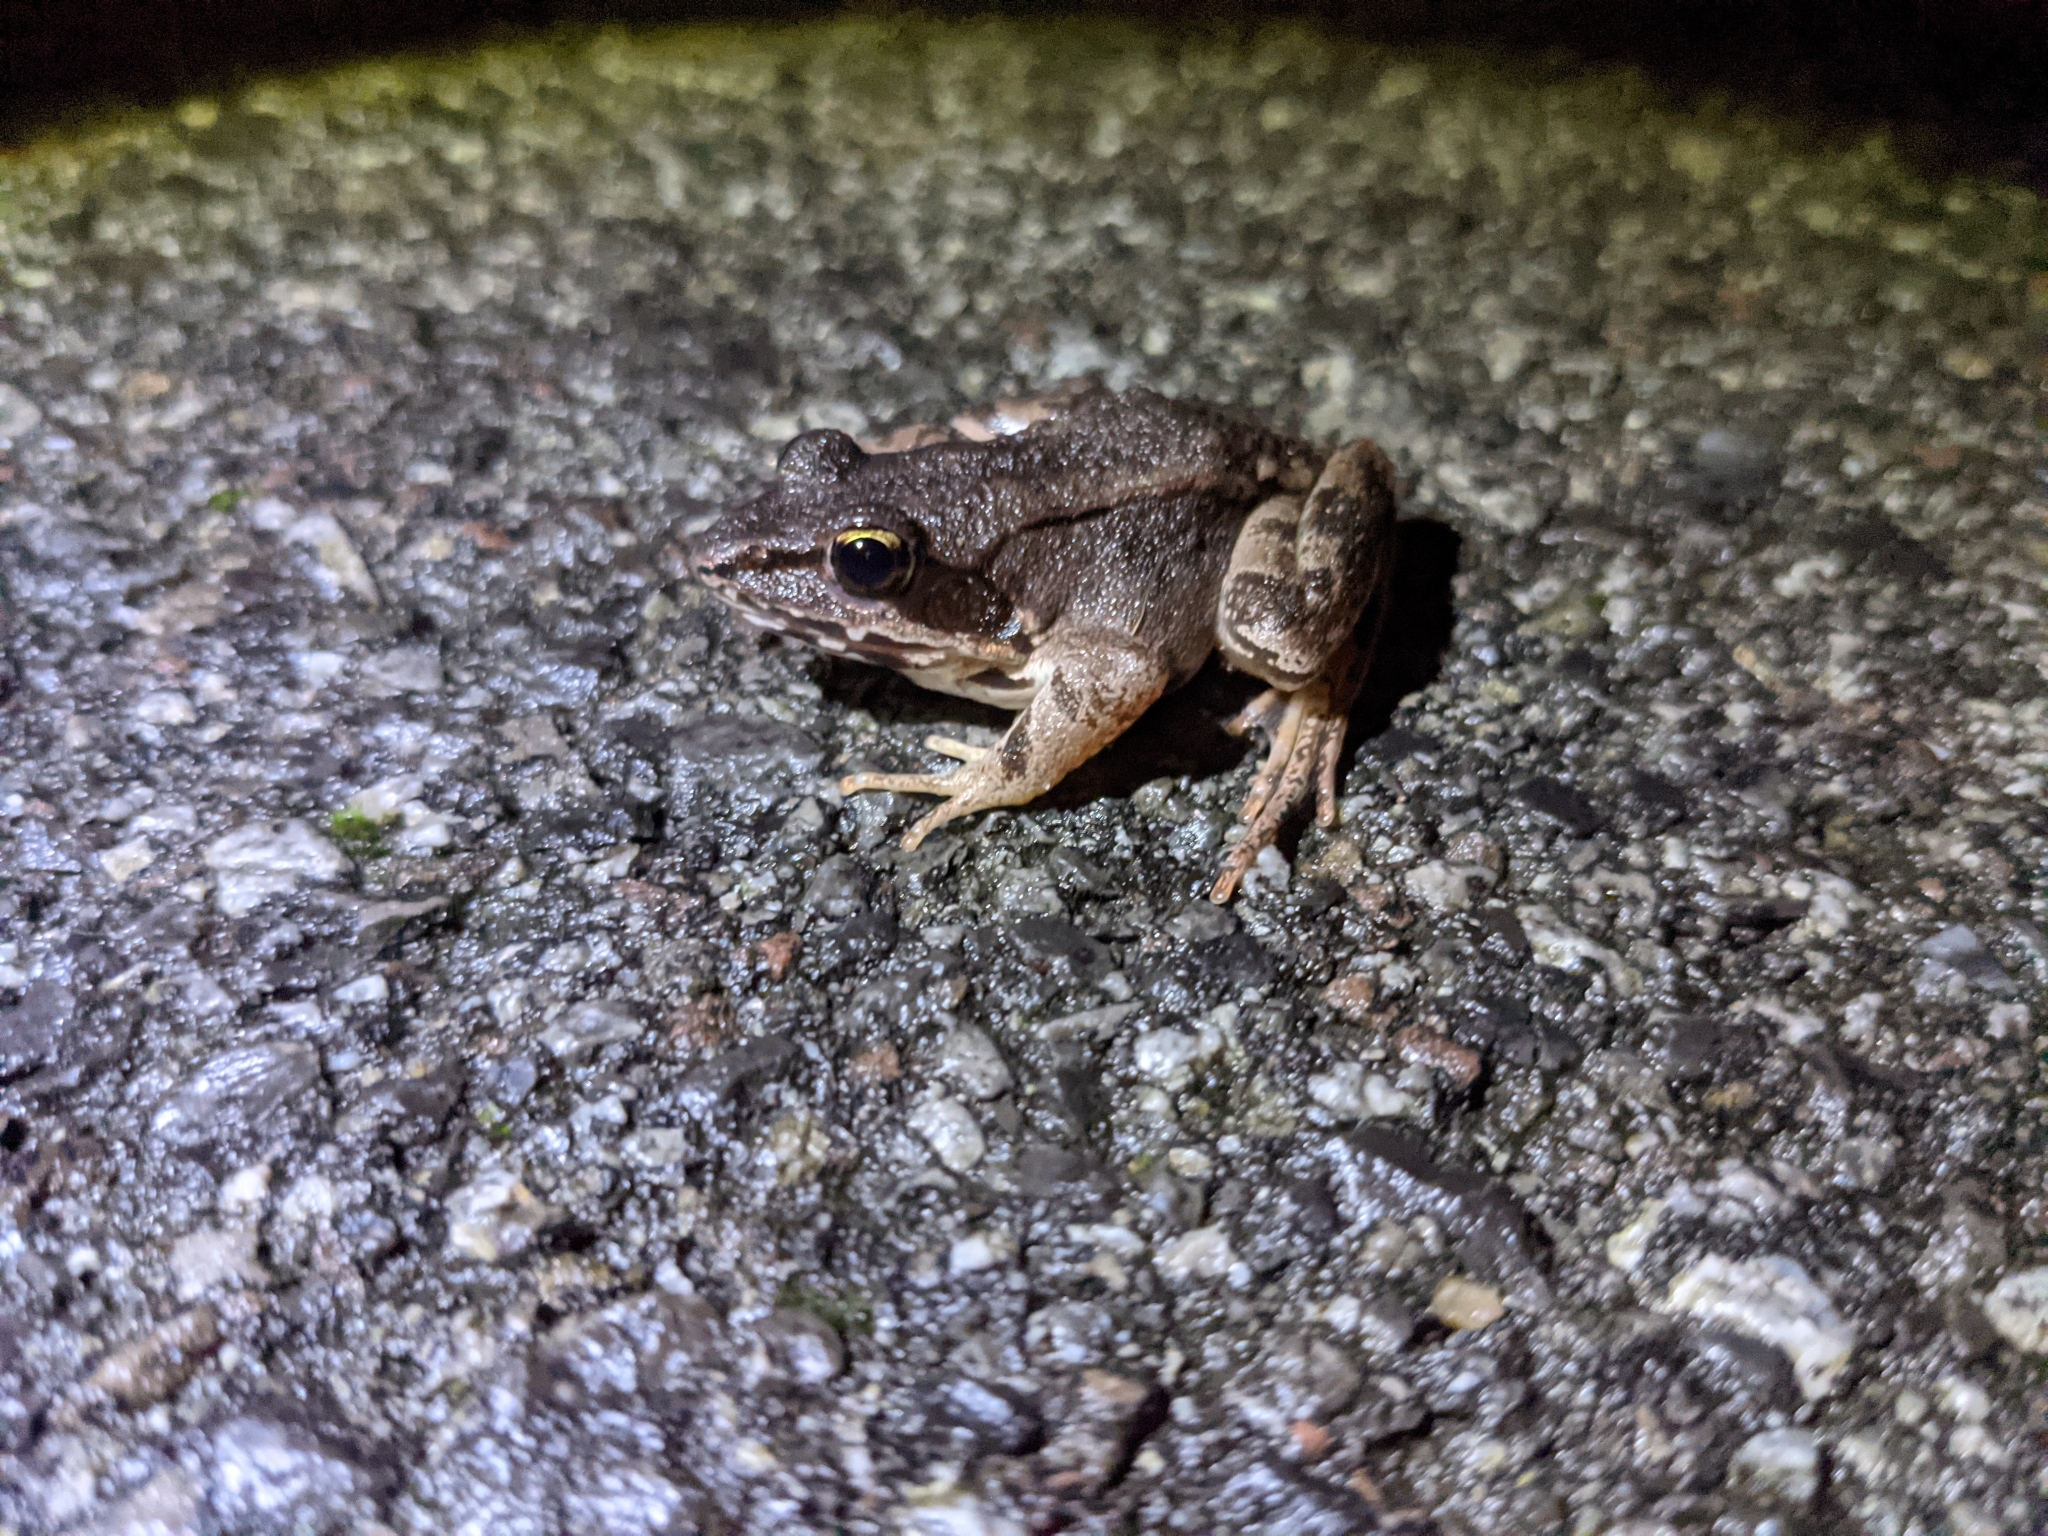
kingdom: Animalia
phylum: Chordata
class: Amphibia
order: Anura
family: Ranidae
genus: Lithobates
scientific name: Lithobates sylvaticus
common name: Wood frog
